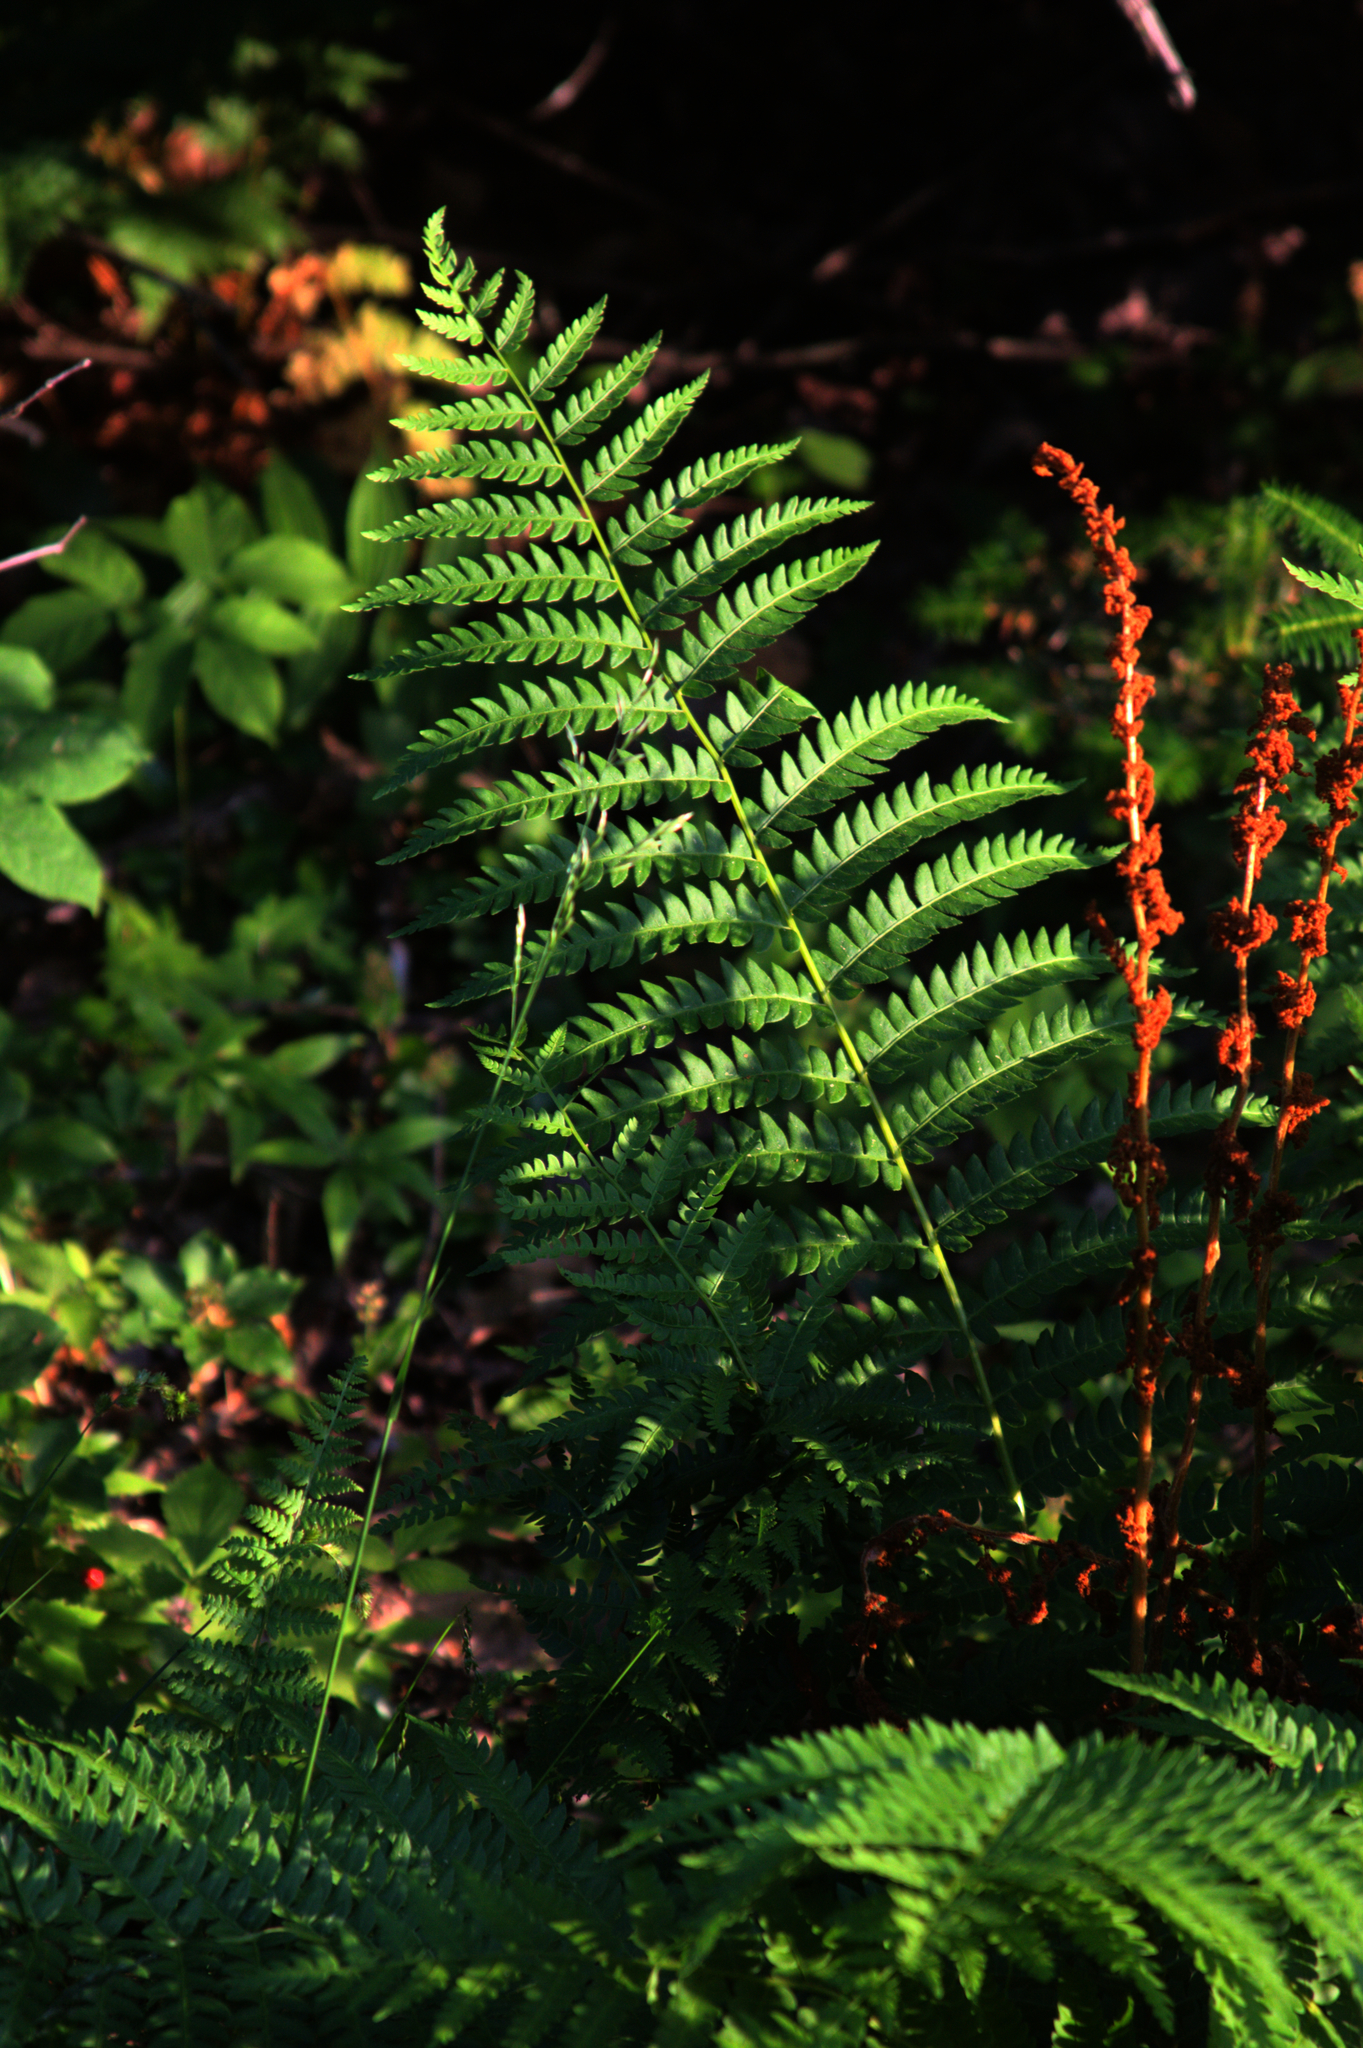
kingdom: Plantae
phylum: Tracheophyta
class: Polypodiopsida
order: Osmundales
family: Osmundaceae
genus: Osmundastrum
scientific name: Osmundastrum cinnamomeum
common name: Cinnamon fern
